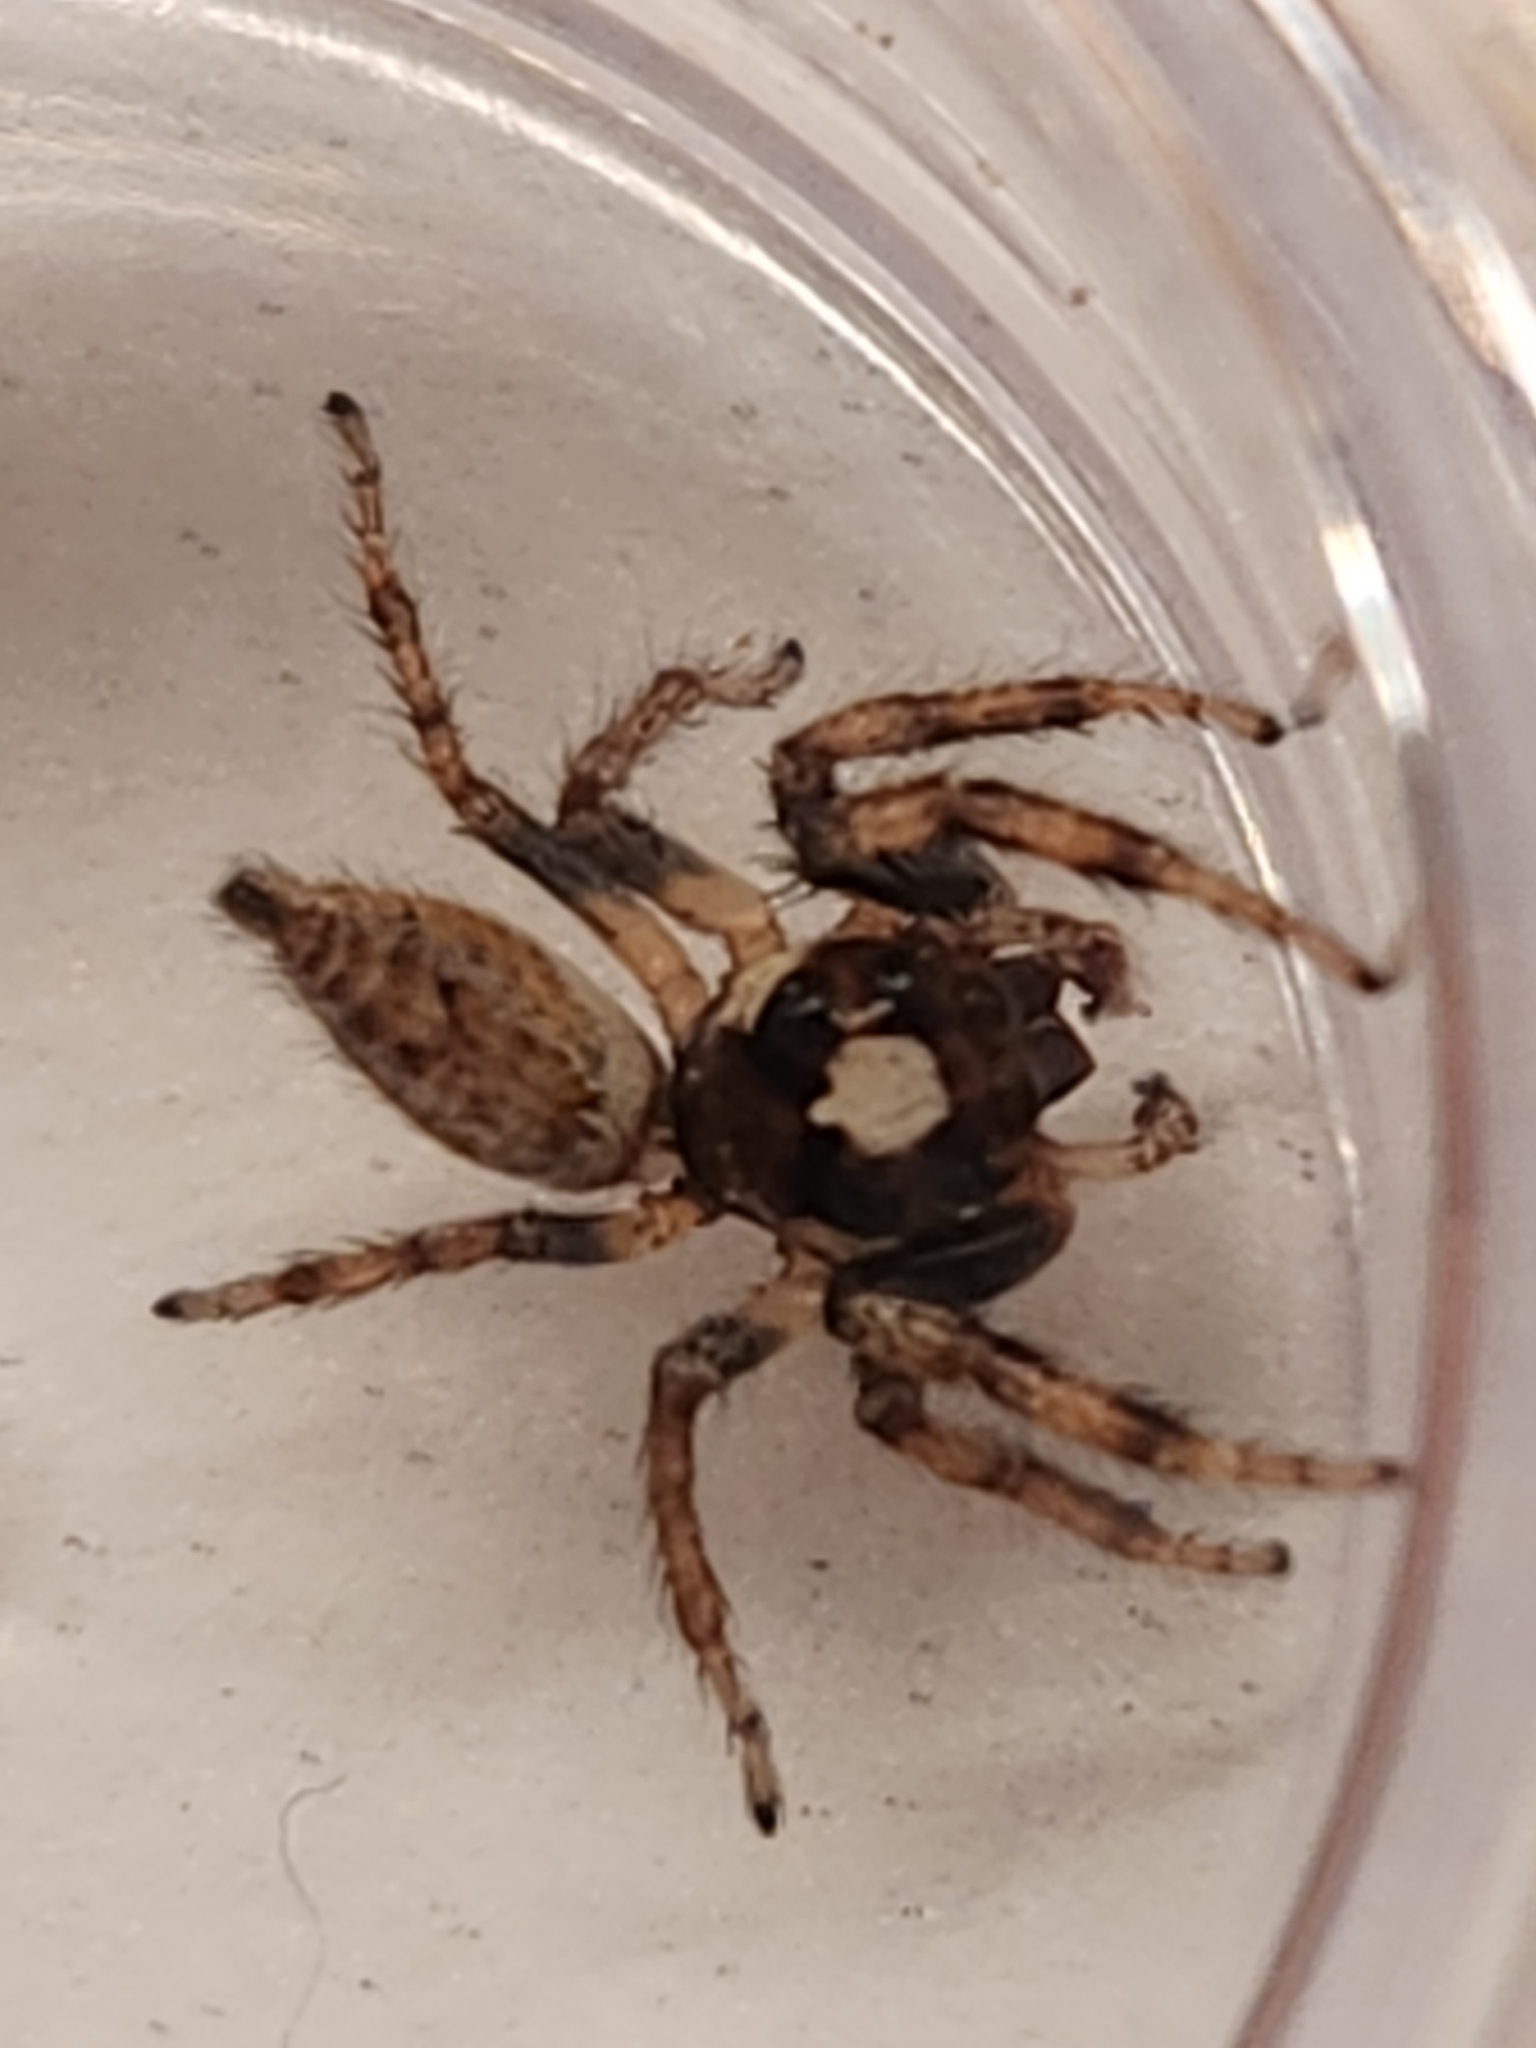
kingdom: Animalia
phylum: Arthropoda
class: Arachnida
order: Araneae
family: Salticidae
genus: Colonus
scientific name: Colonus hesperus
